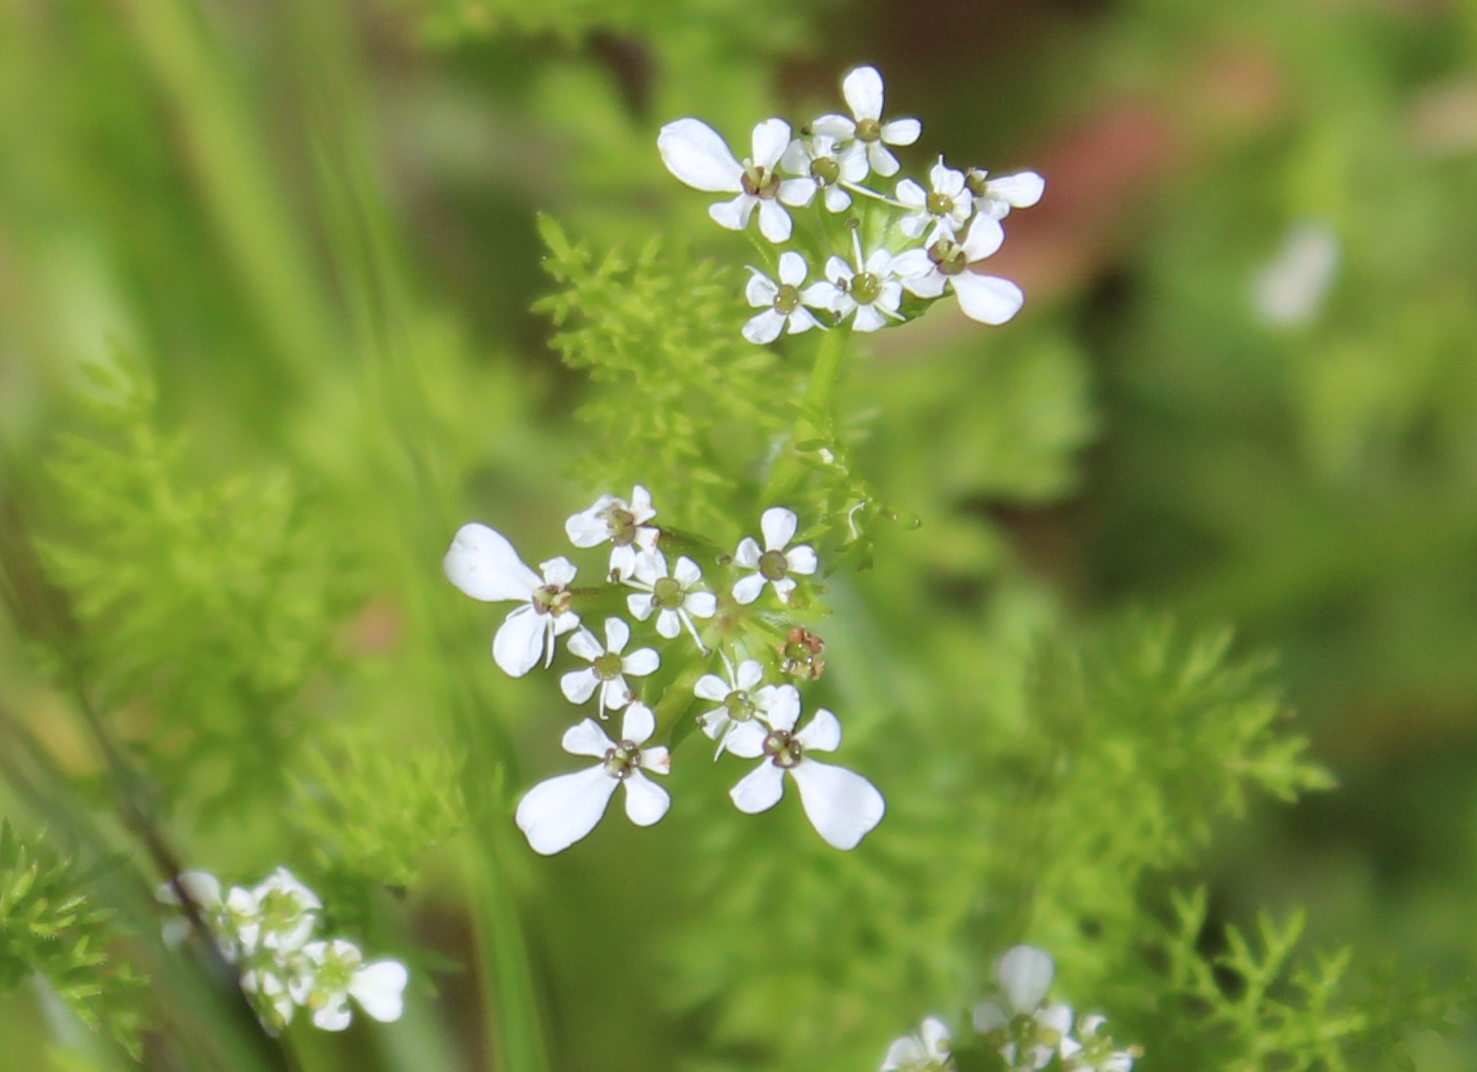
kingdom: Plantae
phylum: Tracheophyta
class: Magnoliopsida
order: Apiales
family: Apiaceae
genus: Scandix
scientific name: Scandix pecten-veneris
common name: Shepherd's-needle
